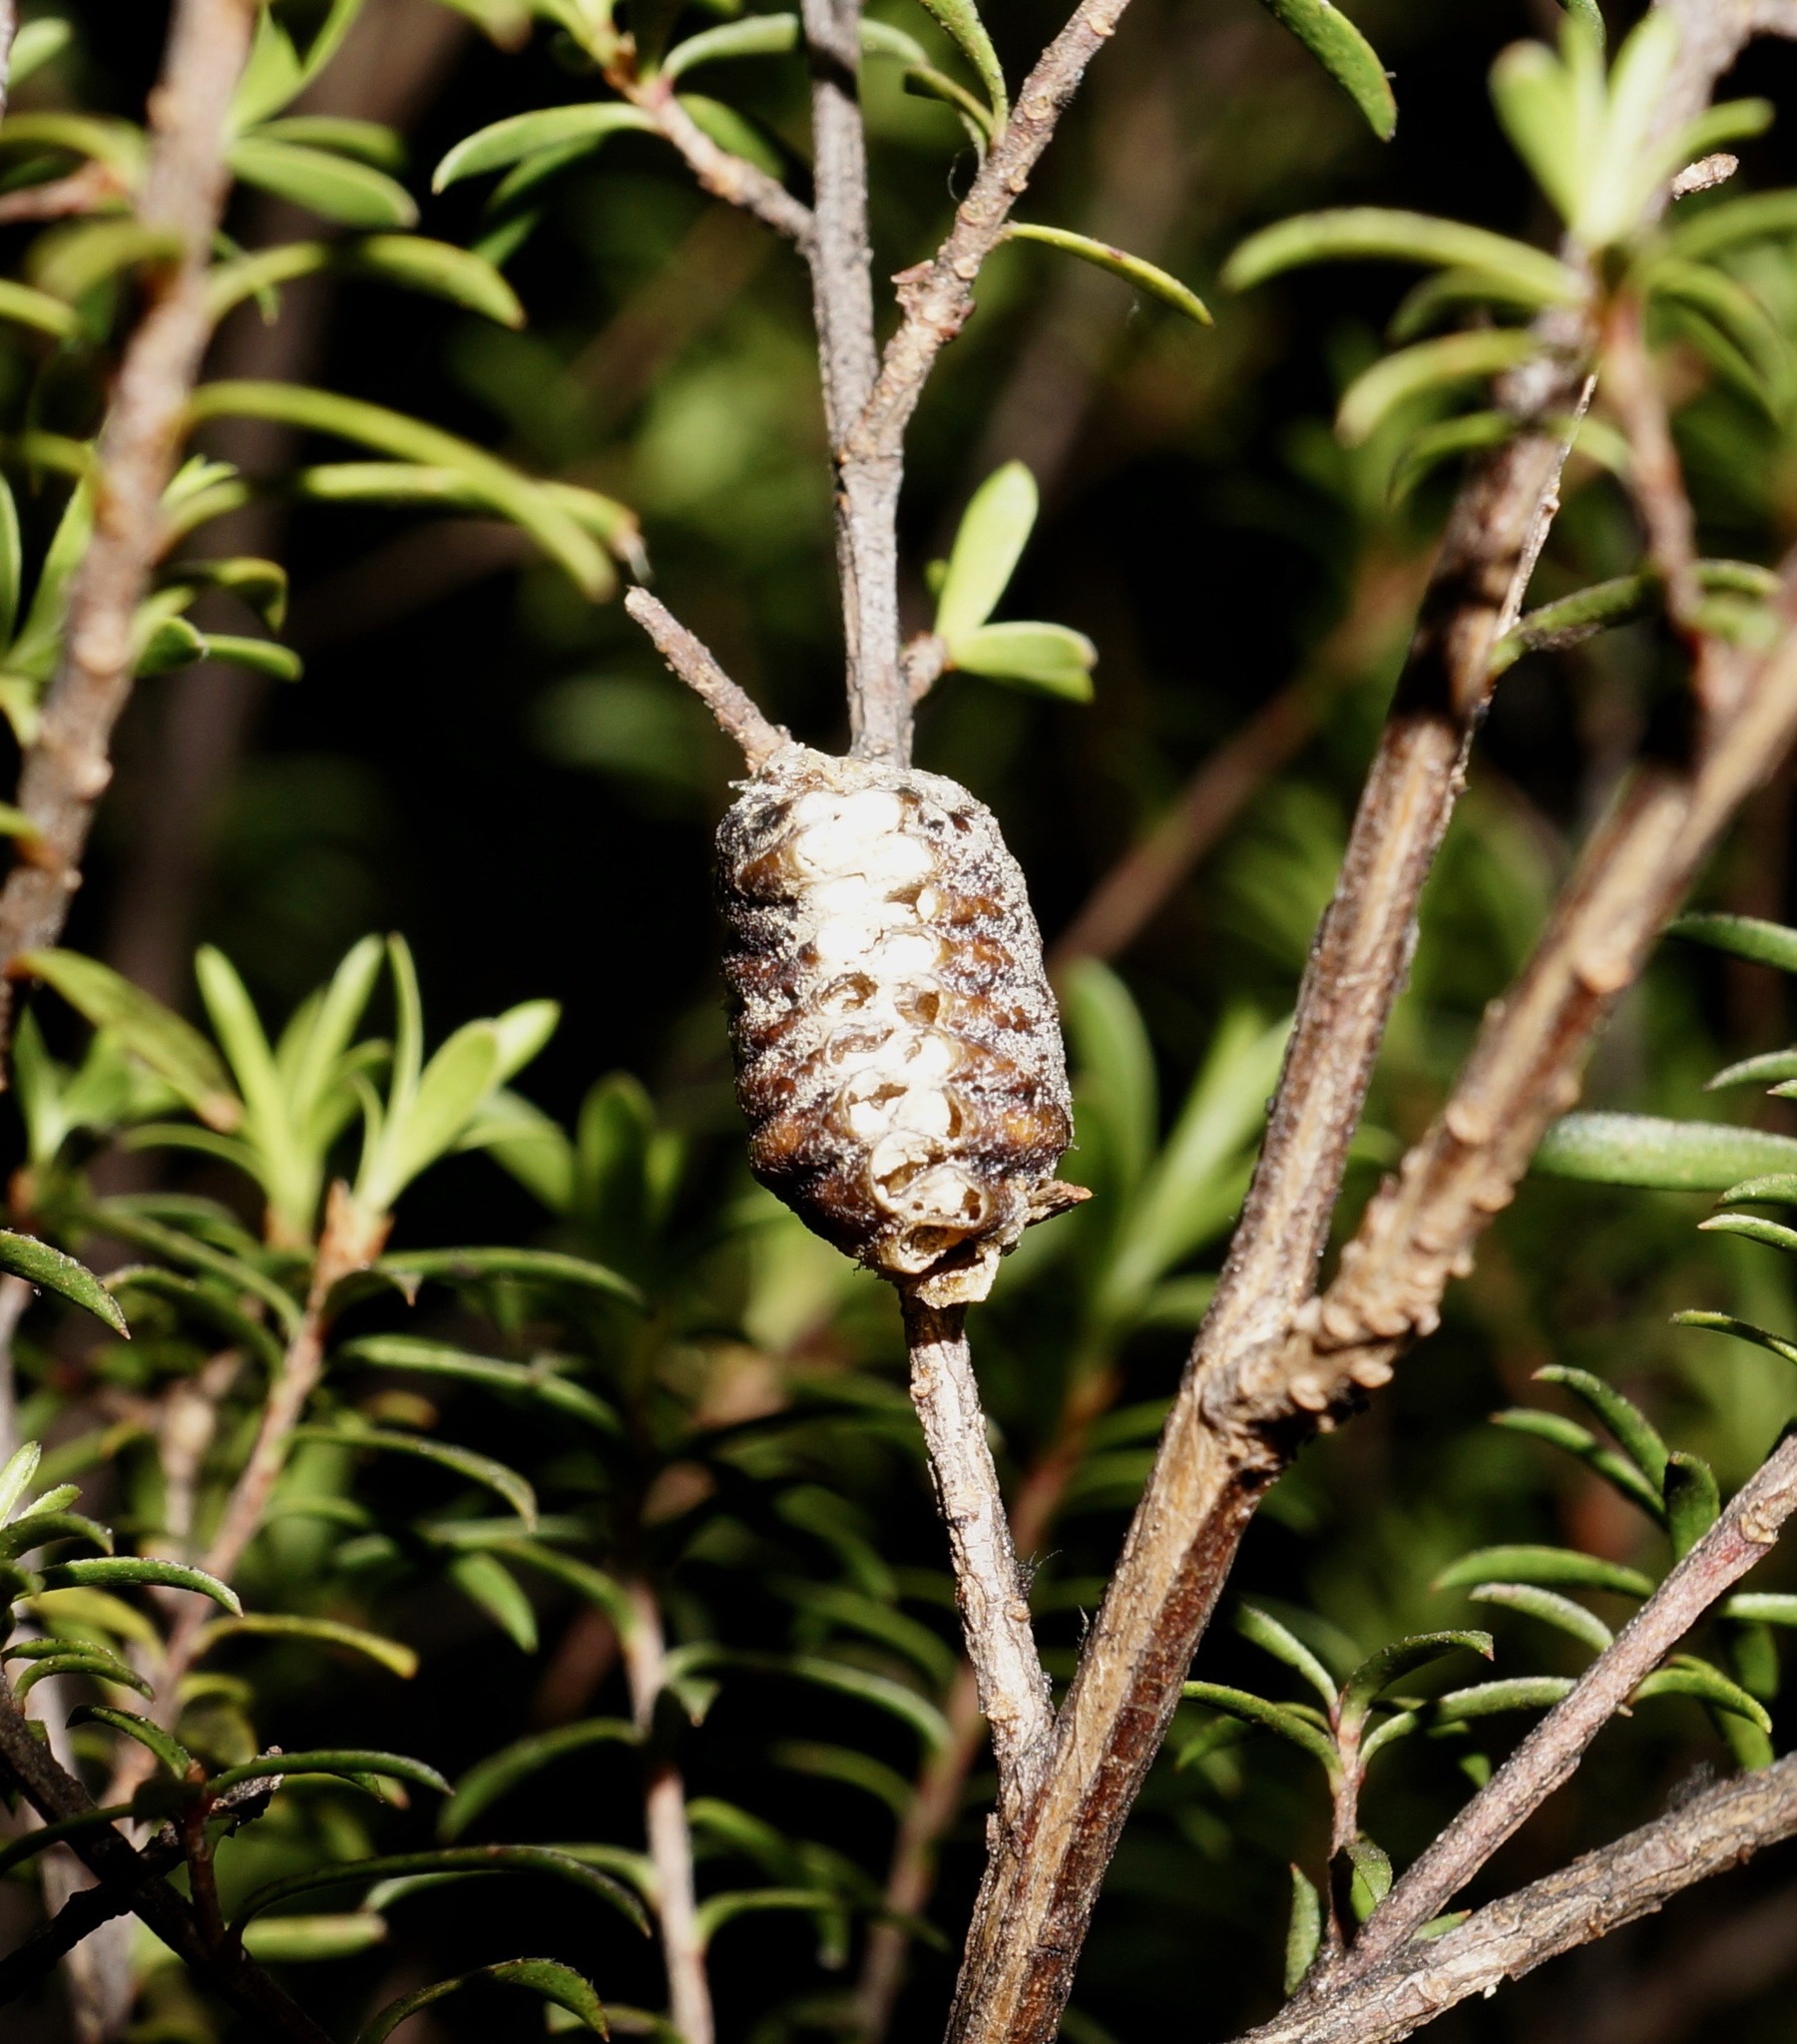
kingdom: Animalia
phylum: Arthropoda
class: Insecta
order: Mantodea
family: Mantidae
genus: Orthodera
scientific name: Orthodera novaezealandiae
